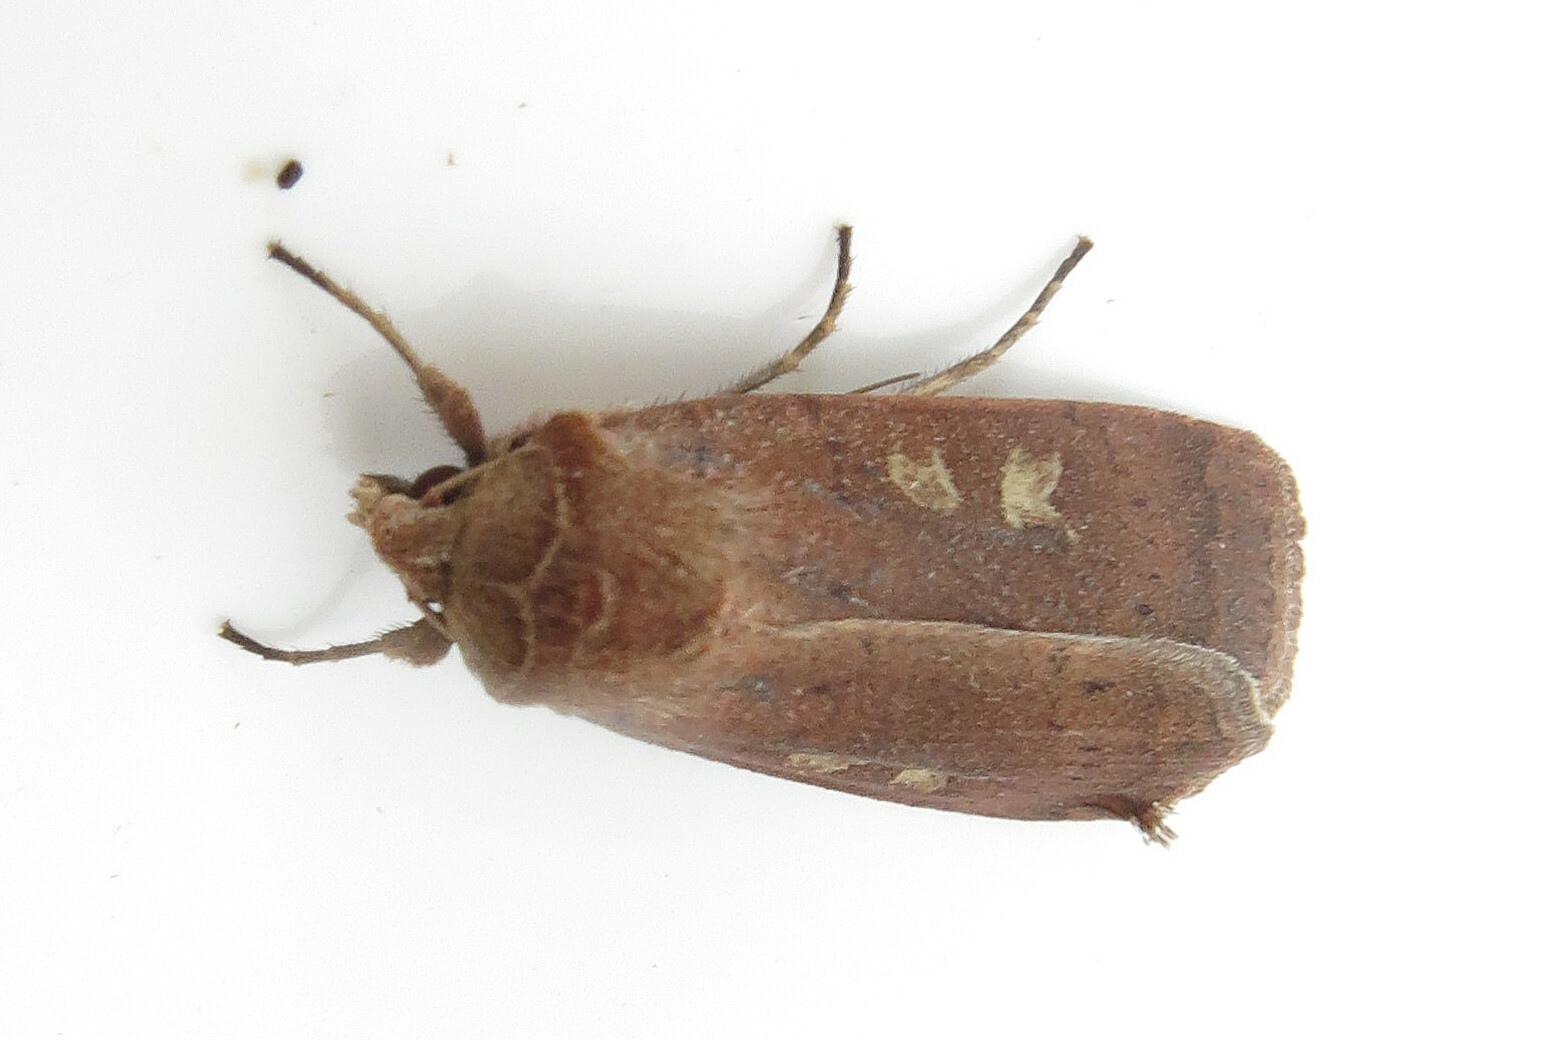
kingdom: Animalia
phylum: Arthropoda
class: Insecta
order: Lepidoptera
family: Noctuidae
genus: Xestia
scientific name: Xestia xanthographa
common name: Square-spot rustic
